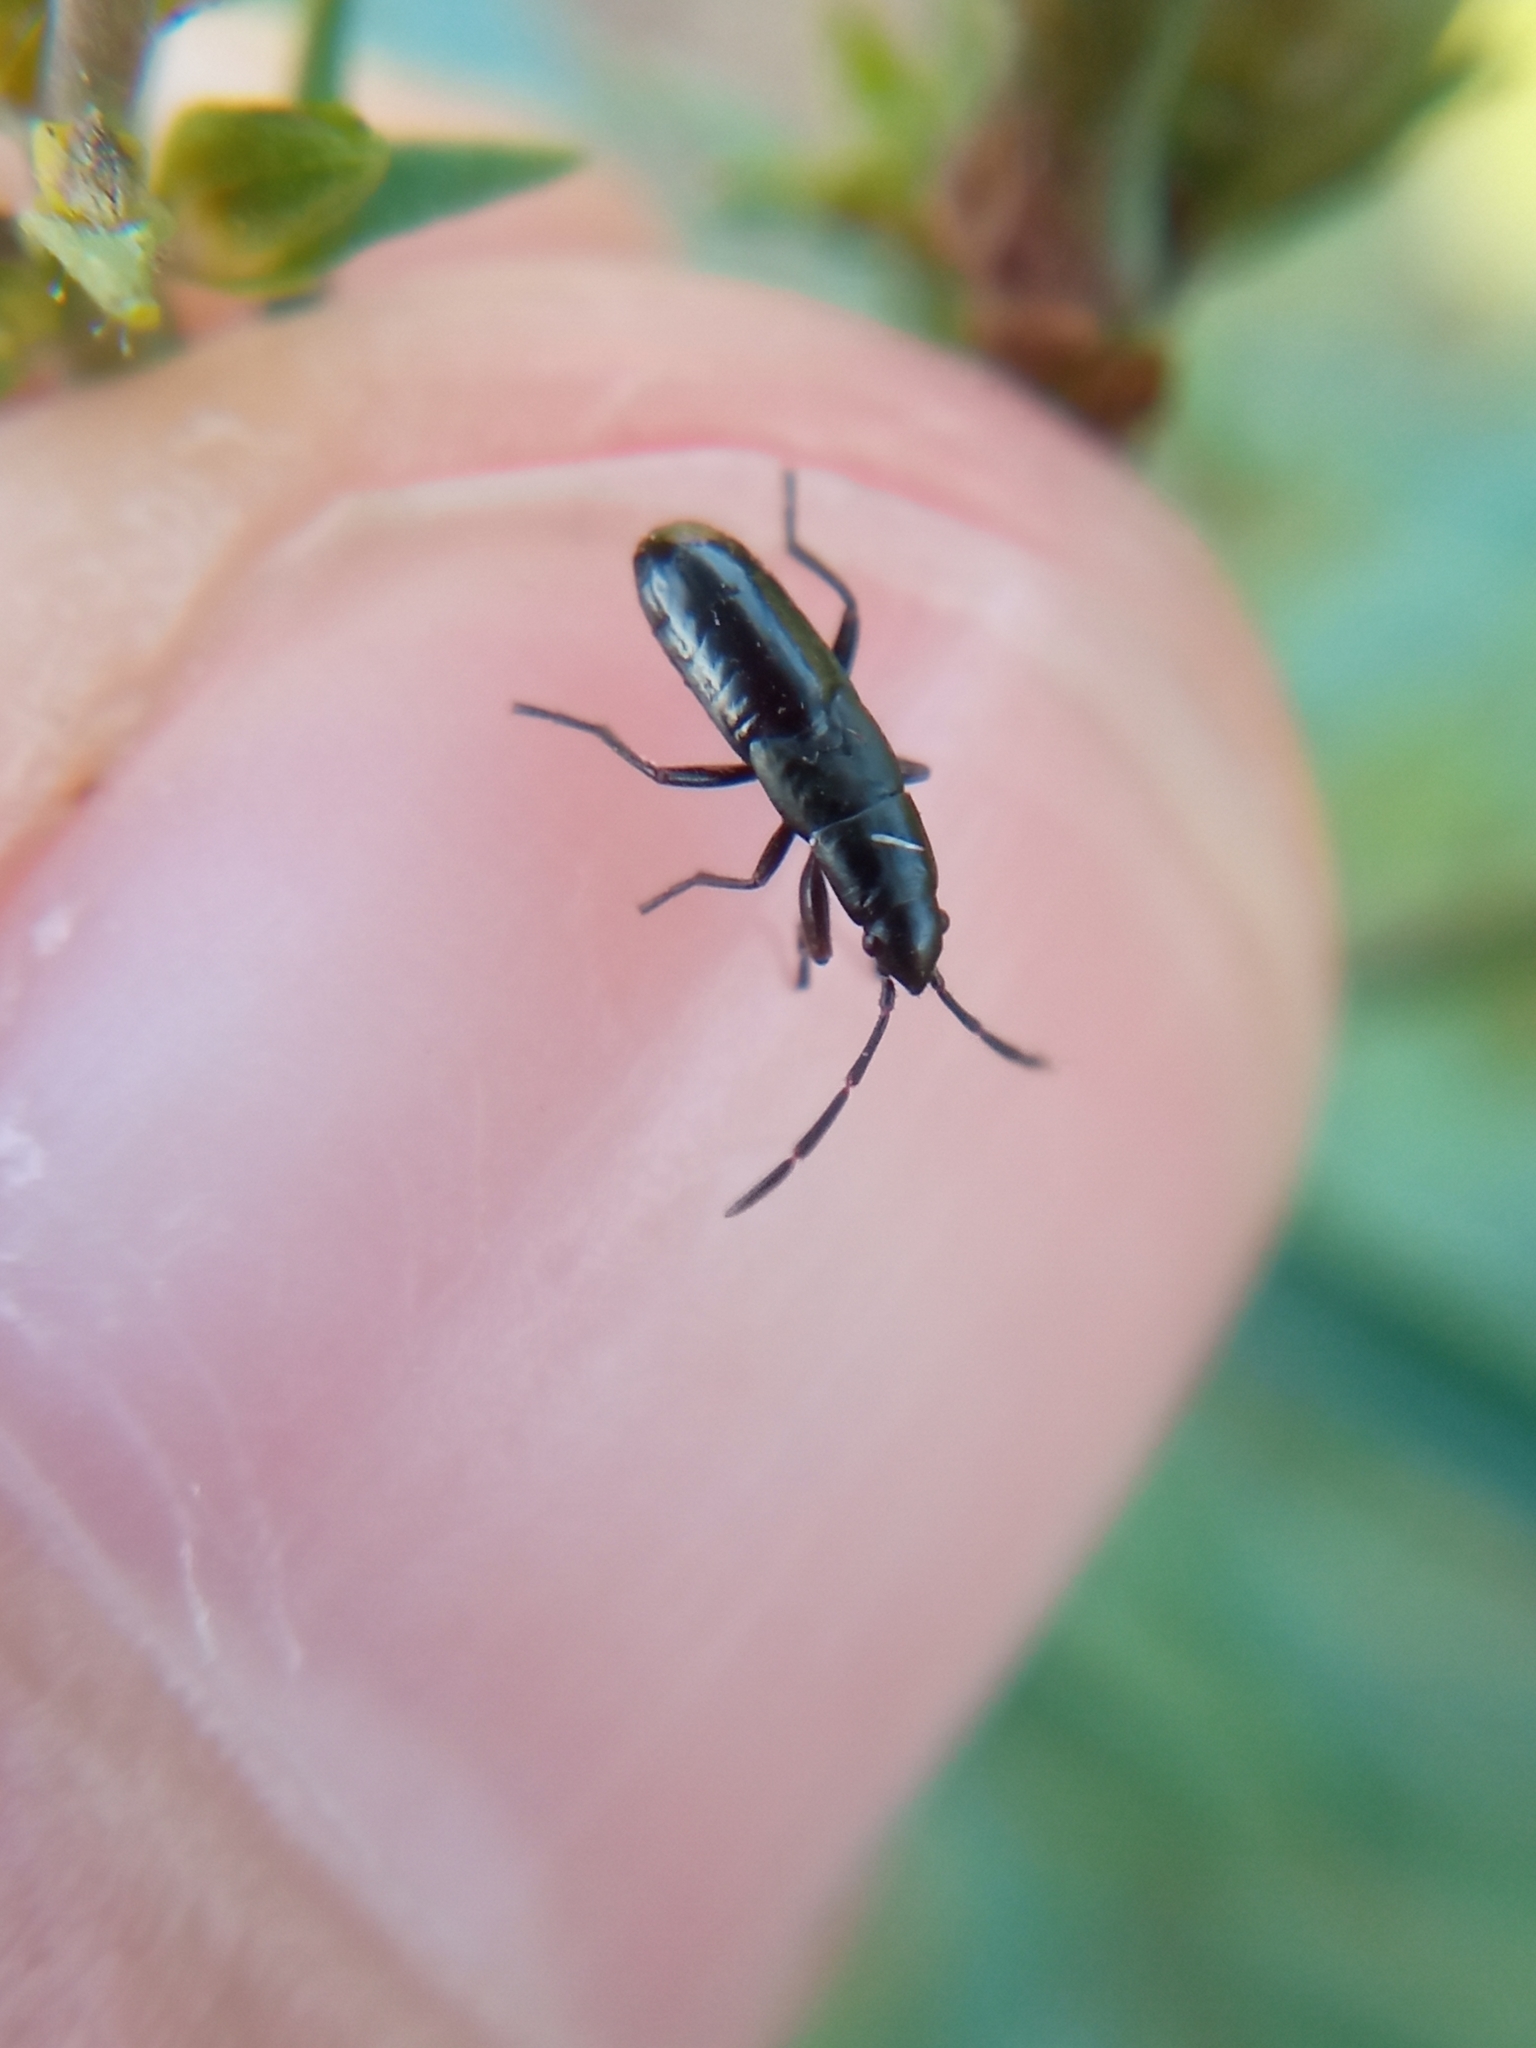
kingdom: Animalia
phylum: Arthropoda
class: Insecta
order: Hemiptera
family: Rhyparochromidae
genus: Pterotmetus
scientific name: Pterotmetus staphyliniformis
